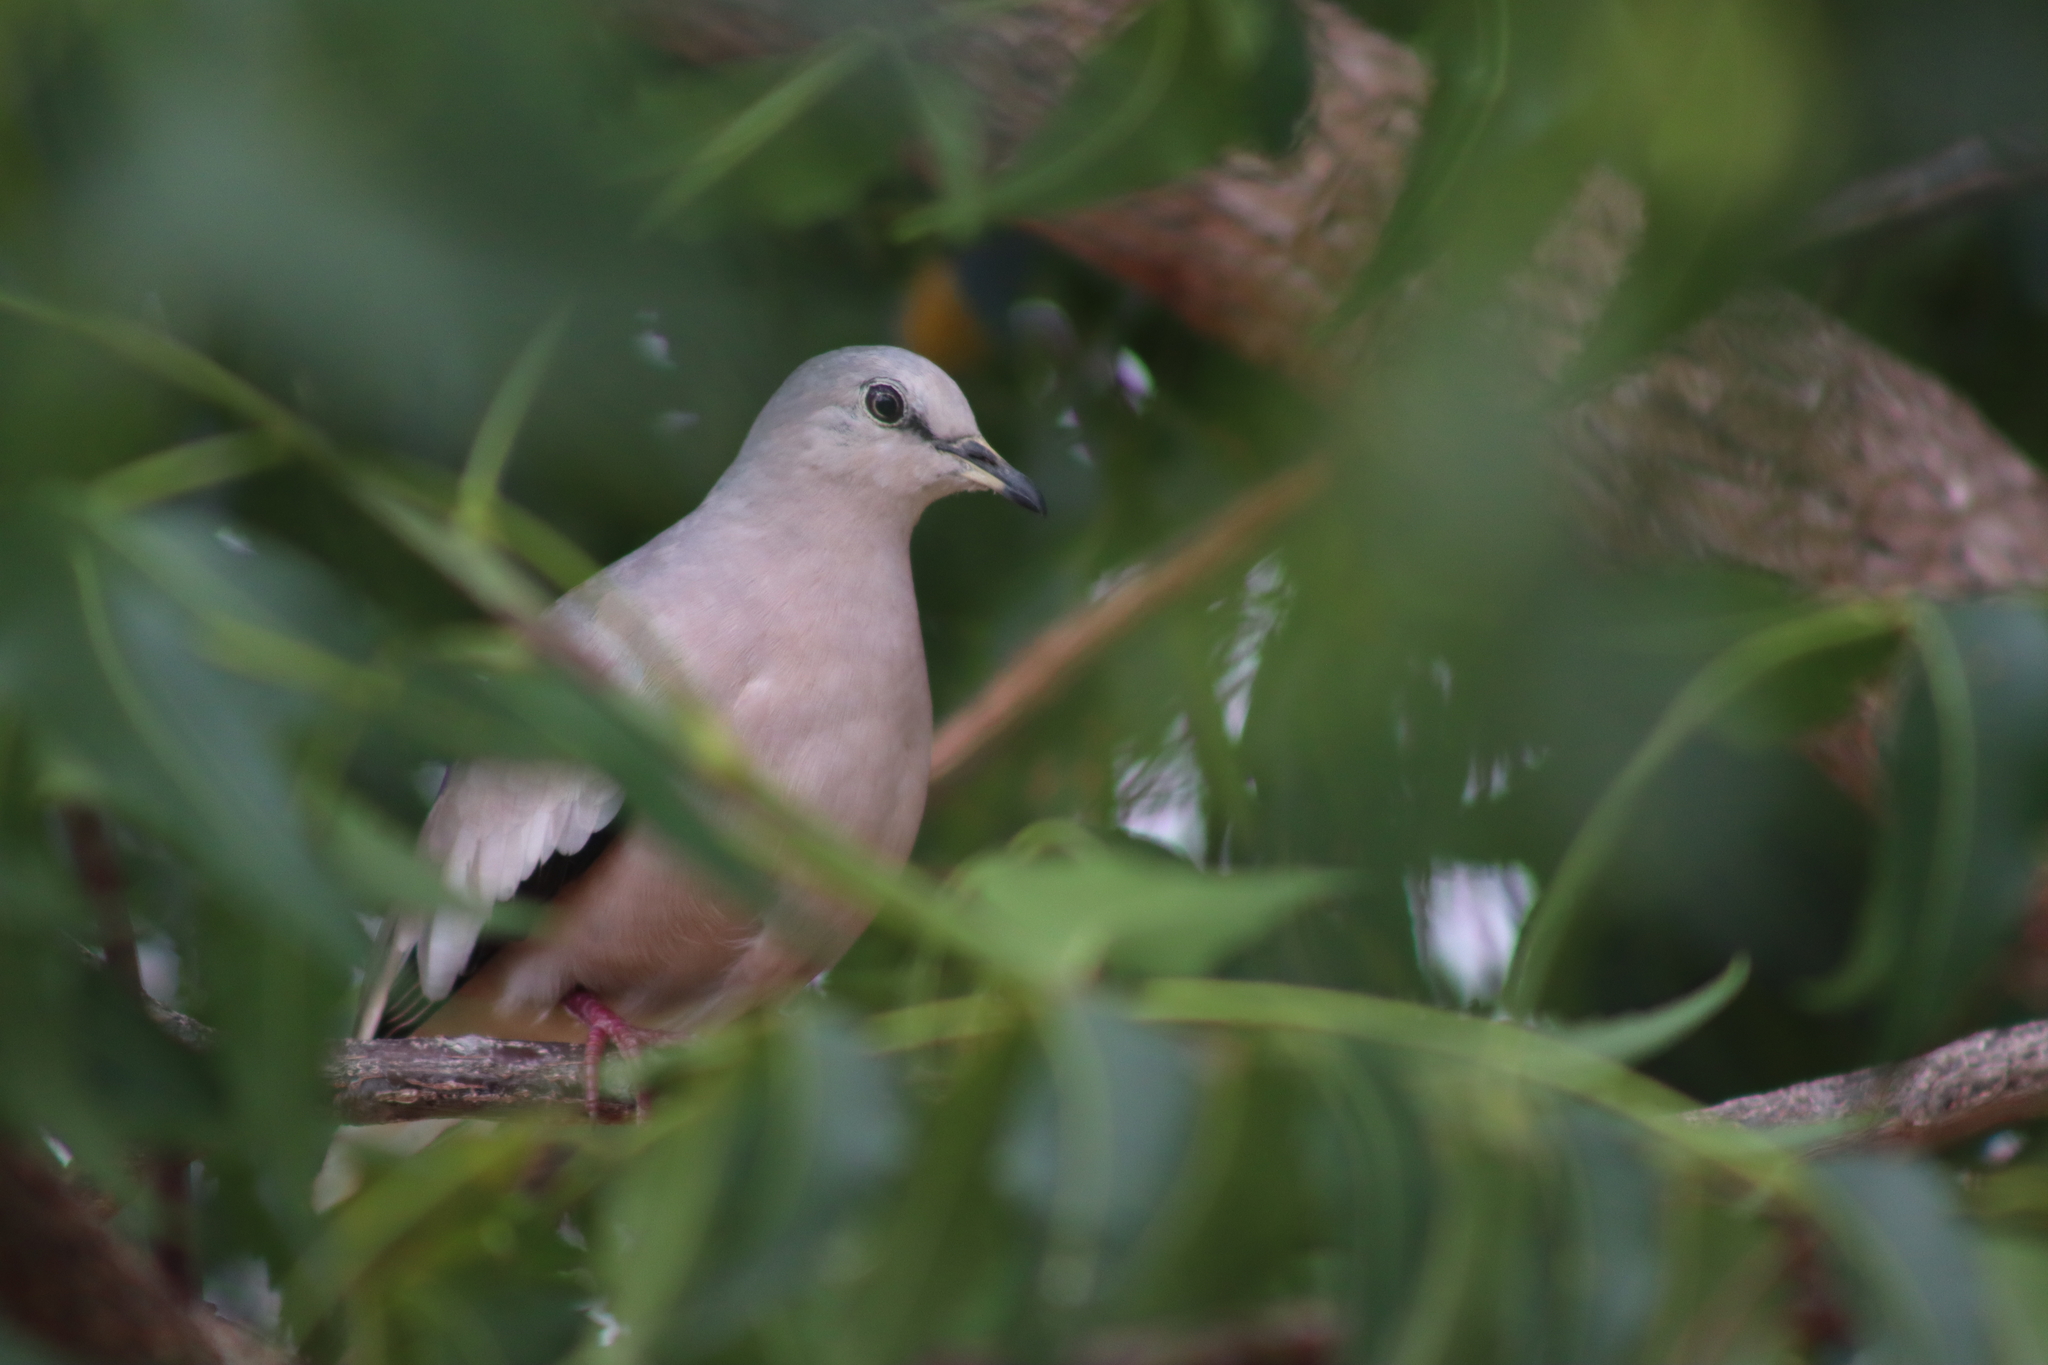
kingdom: Animalia
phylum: Chordata
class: Aves
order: Columbiformes
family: Columbidae
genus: Columbina
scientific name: Columbina picui
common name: Picui ground dove
